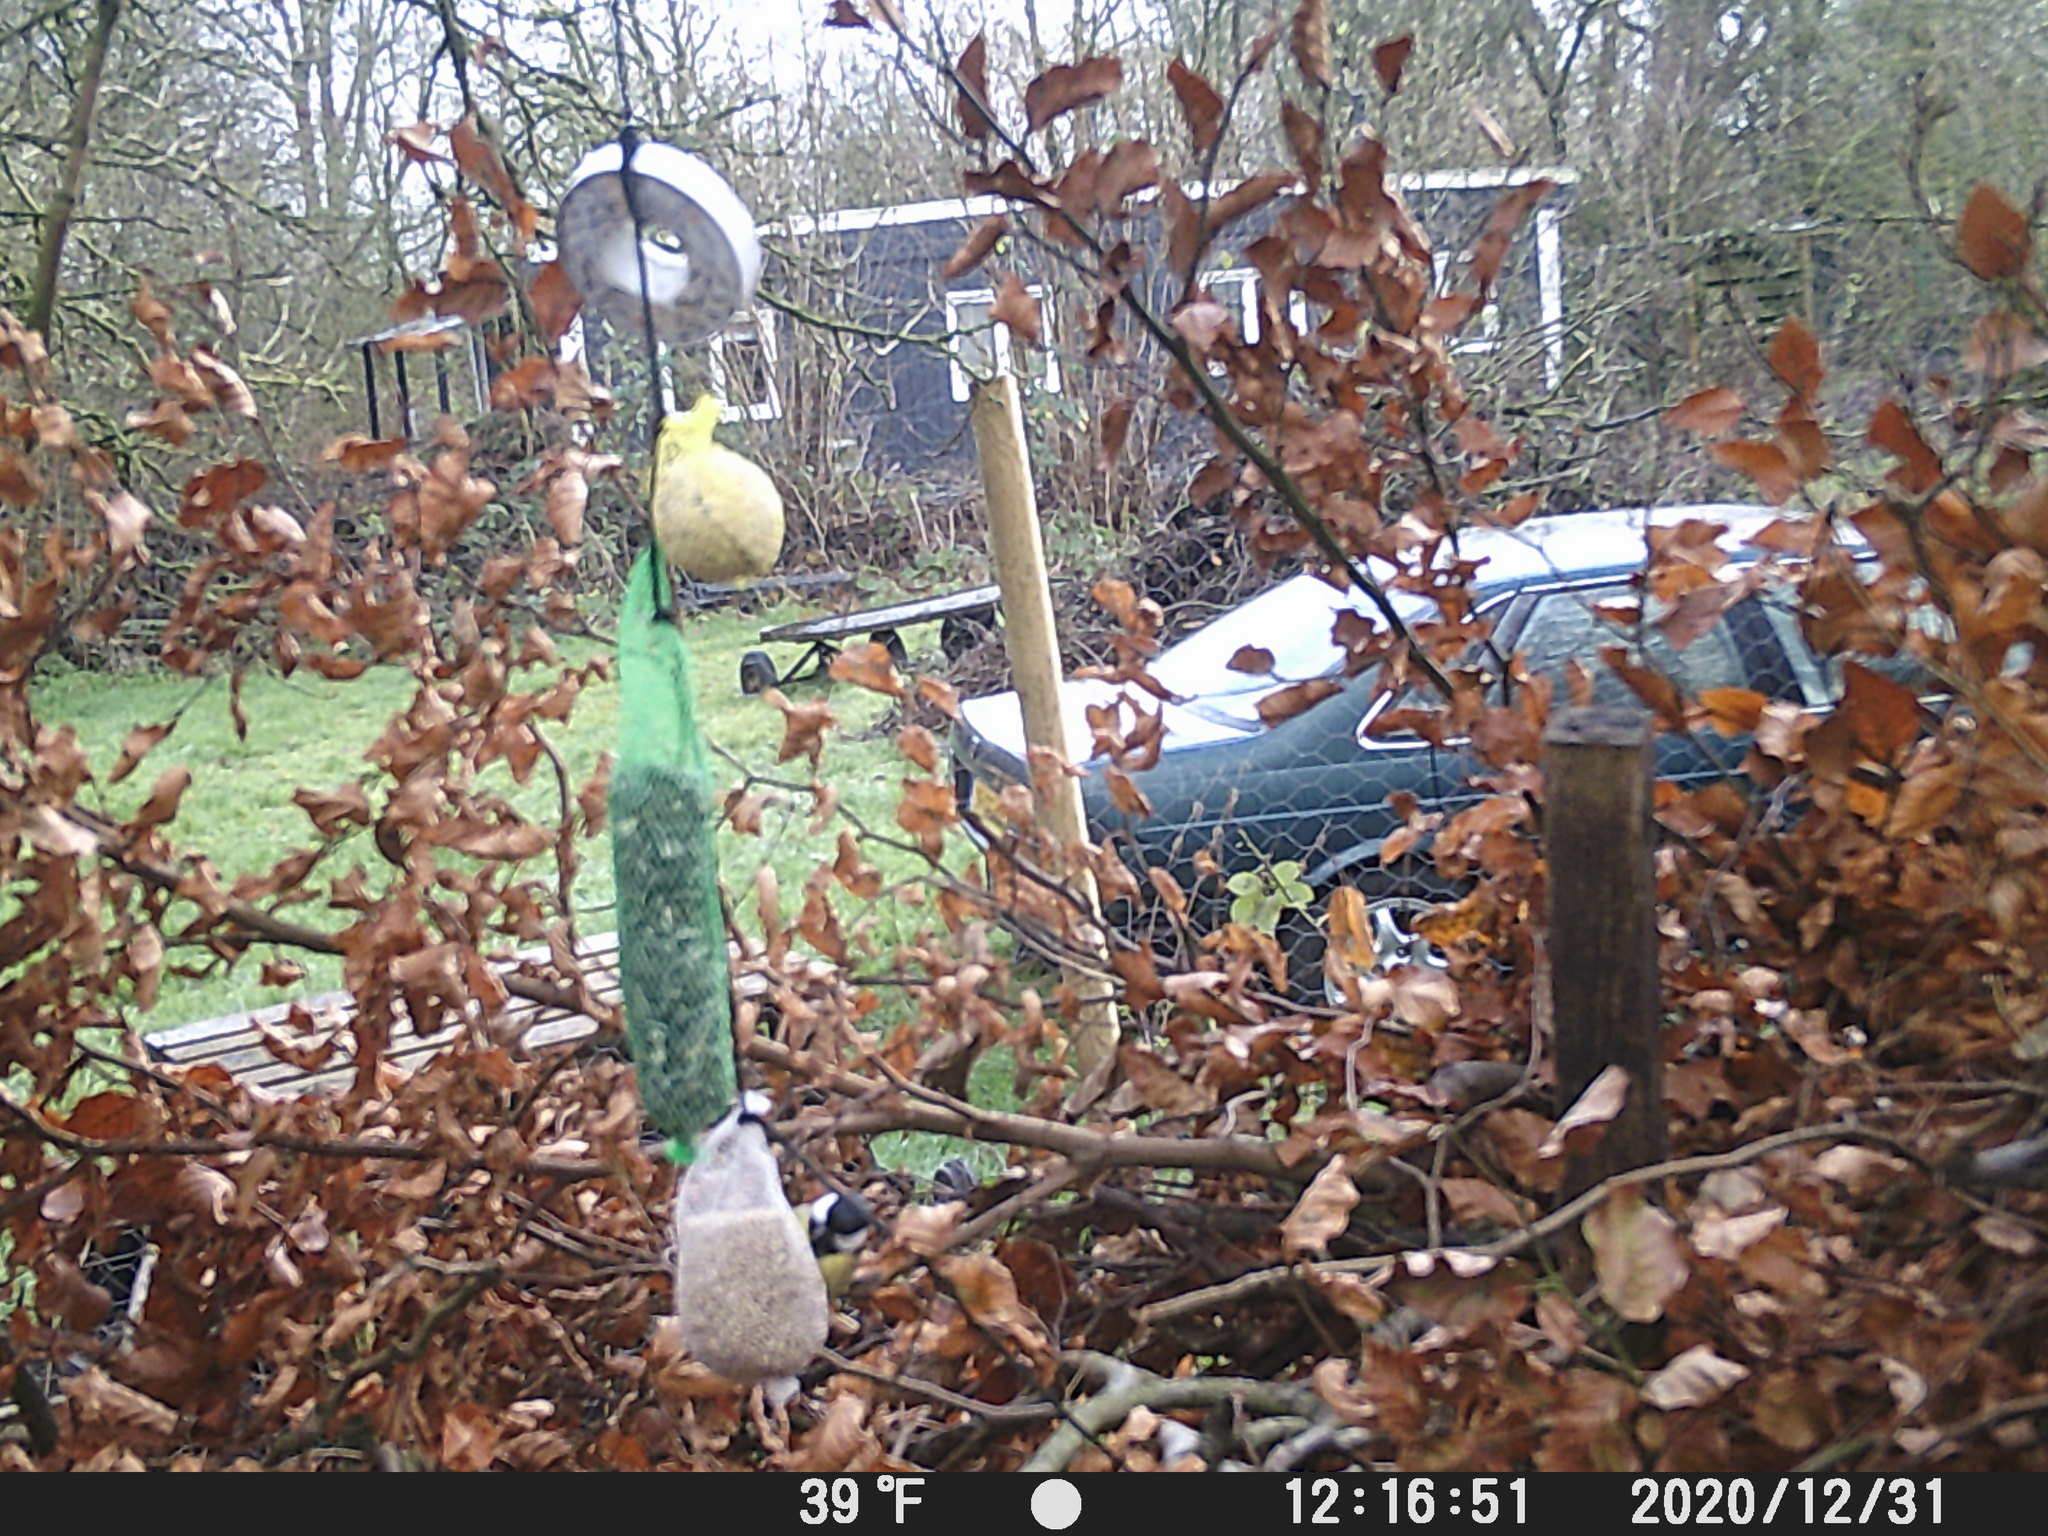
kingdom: Animalia
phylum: Chordata
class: Aves
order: Passeriformes
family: Paridae
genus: Parus
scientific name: Parus major
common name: Great tit
